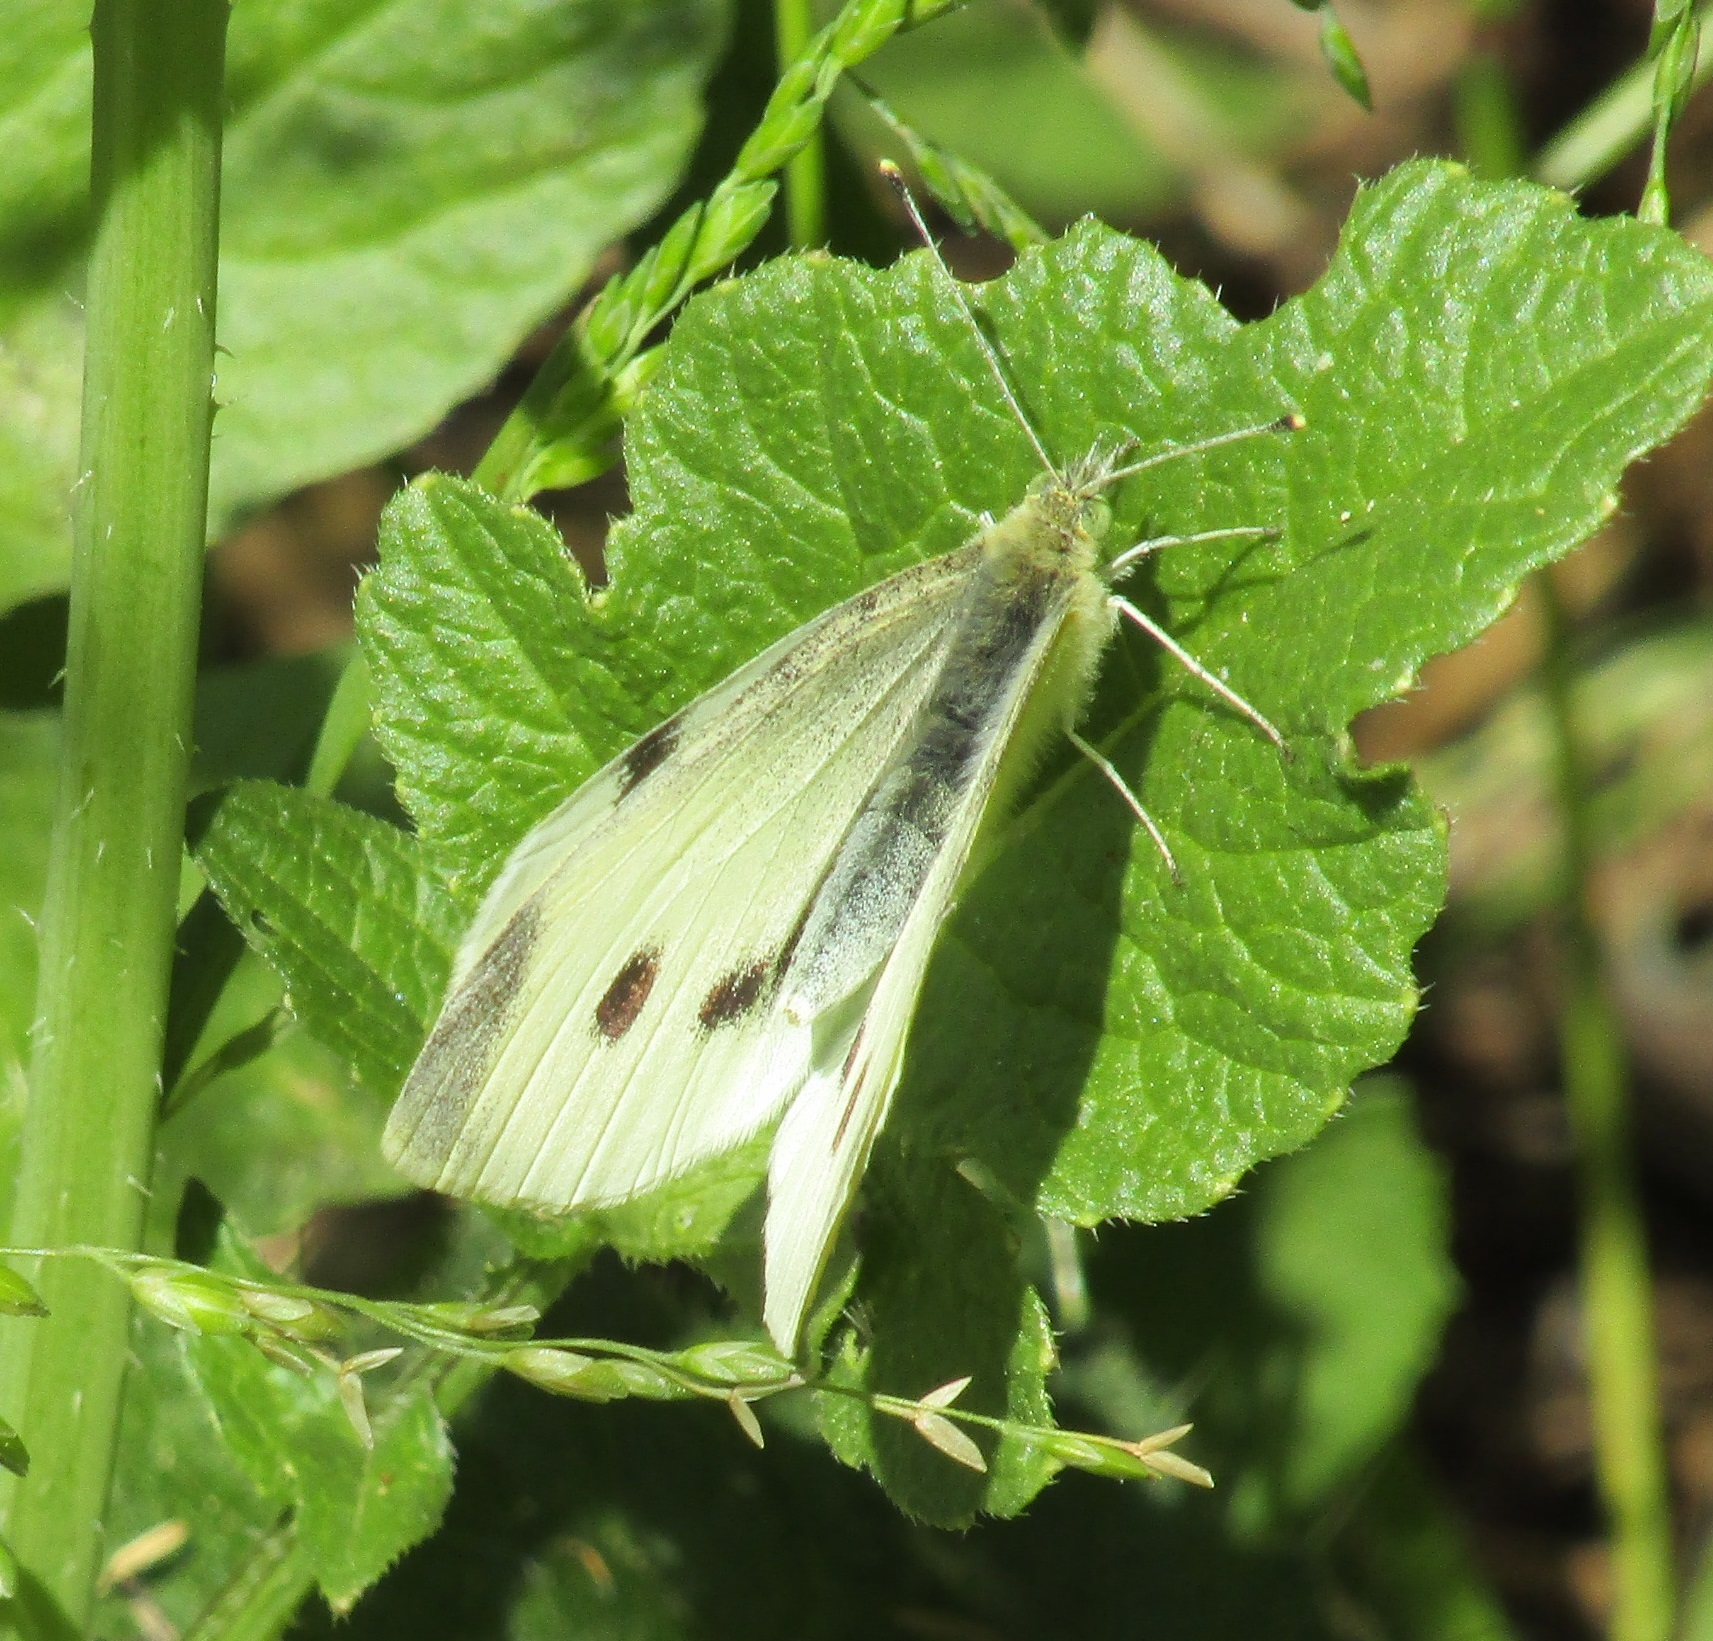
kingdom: Animalia
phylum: Arthropoda
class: Insecta
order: Lepidoptera
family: Pieridae
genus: Pieris
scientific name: Pieris rapae
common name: Small white
